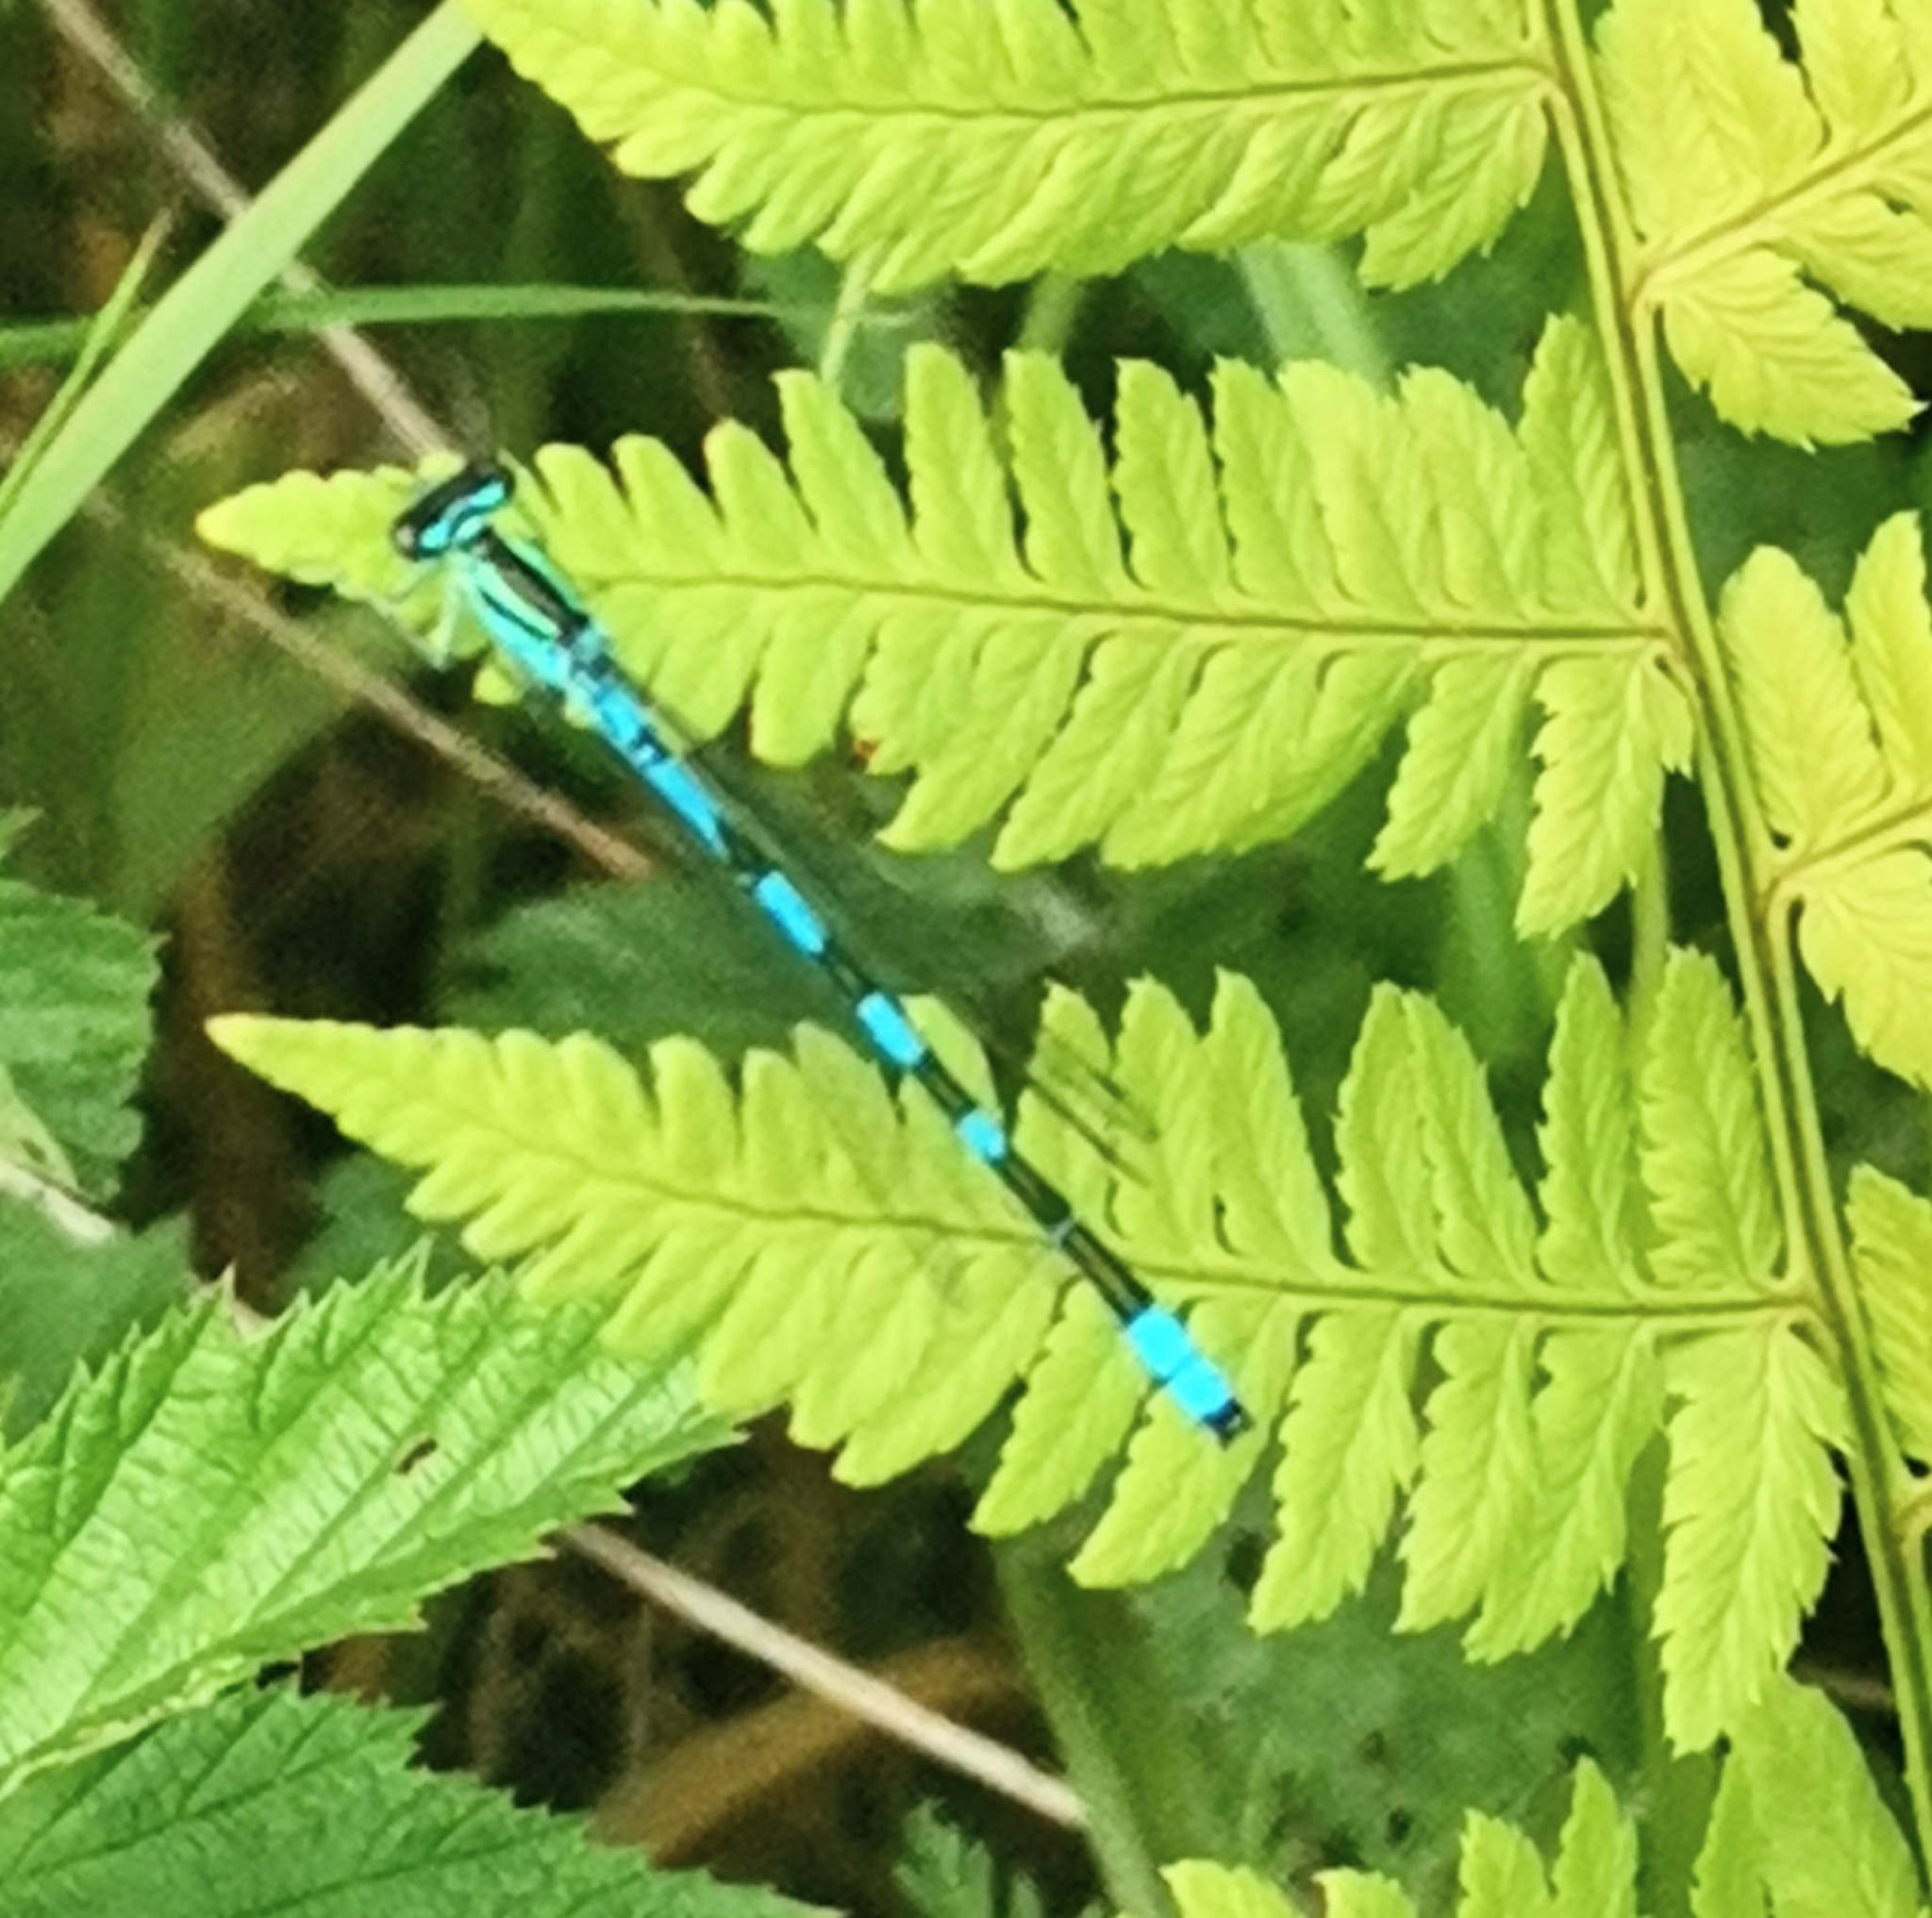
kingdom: Animalia
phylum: Arthropoda
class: Insecta
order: Odonata
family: Coenagrionidae
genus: Coenagrion
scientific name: Coenagrion hastulatum
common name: Spearhead bluet
